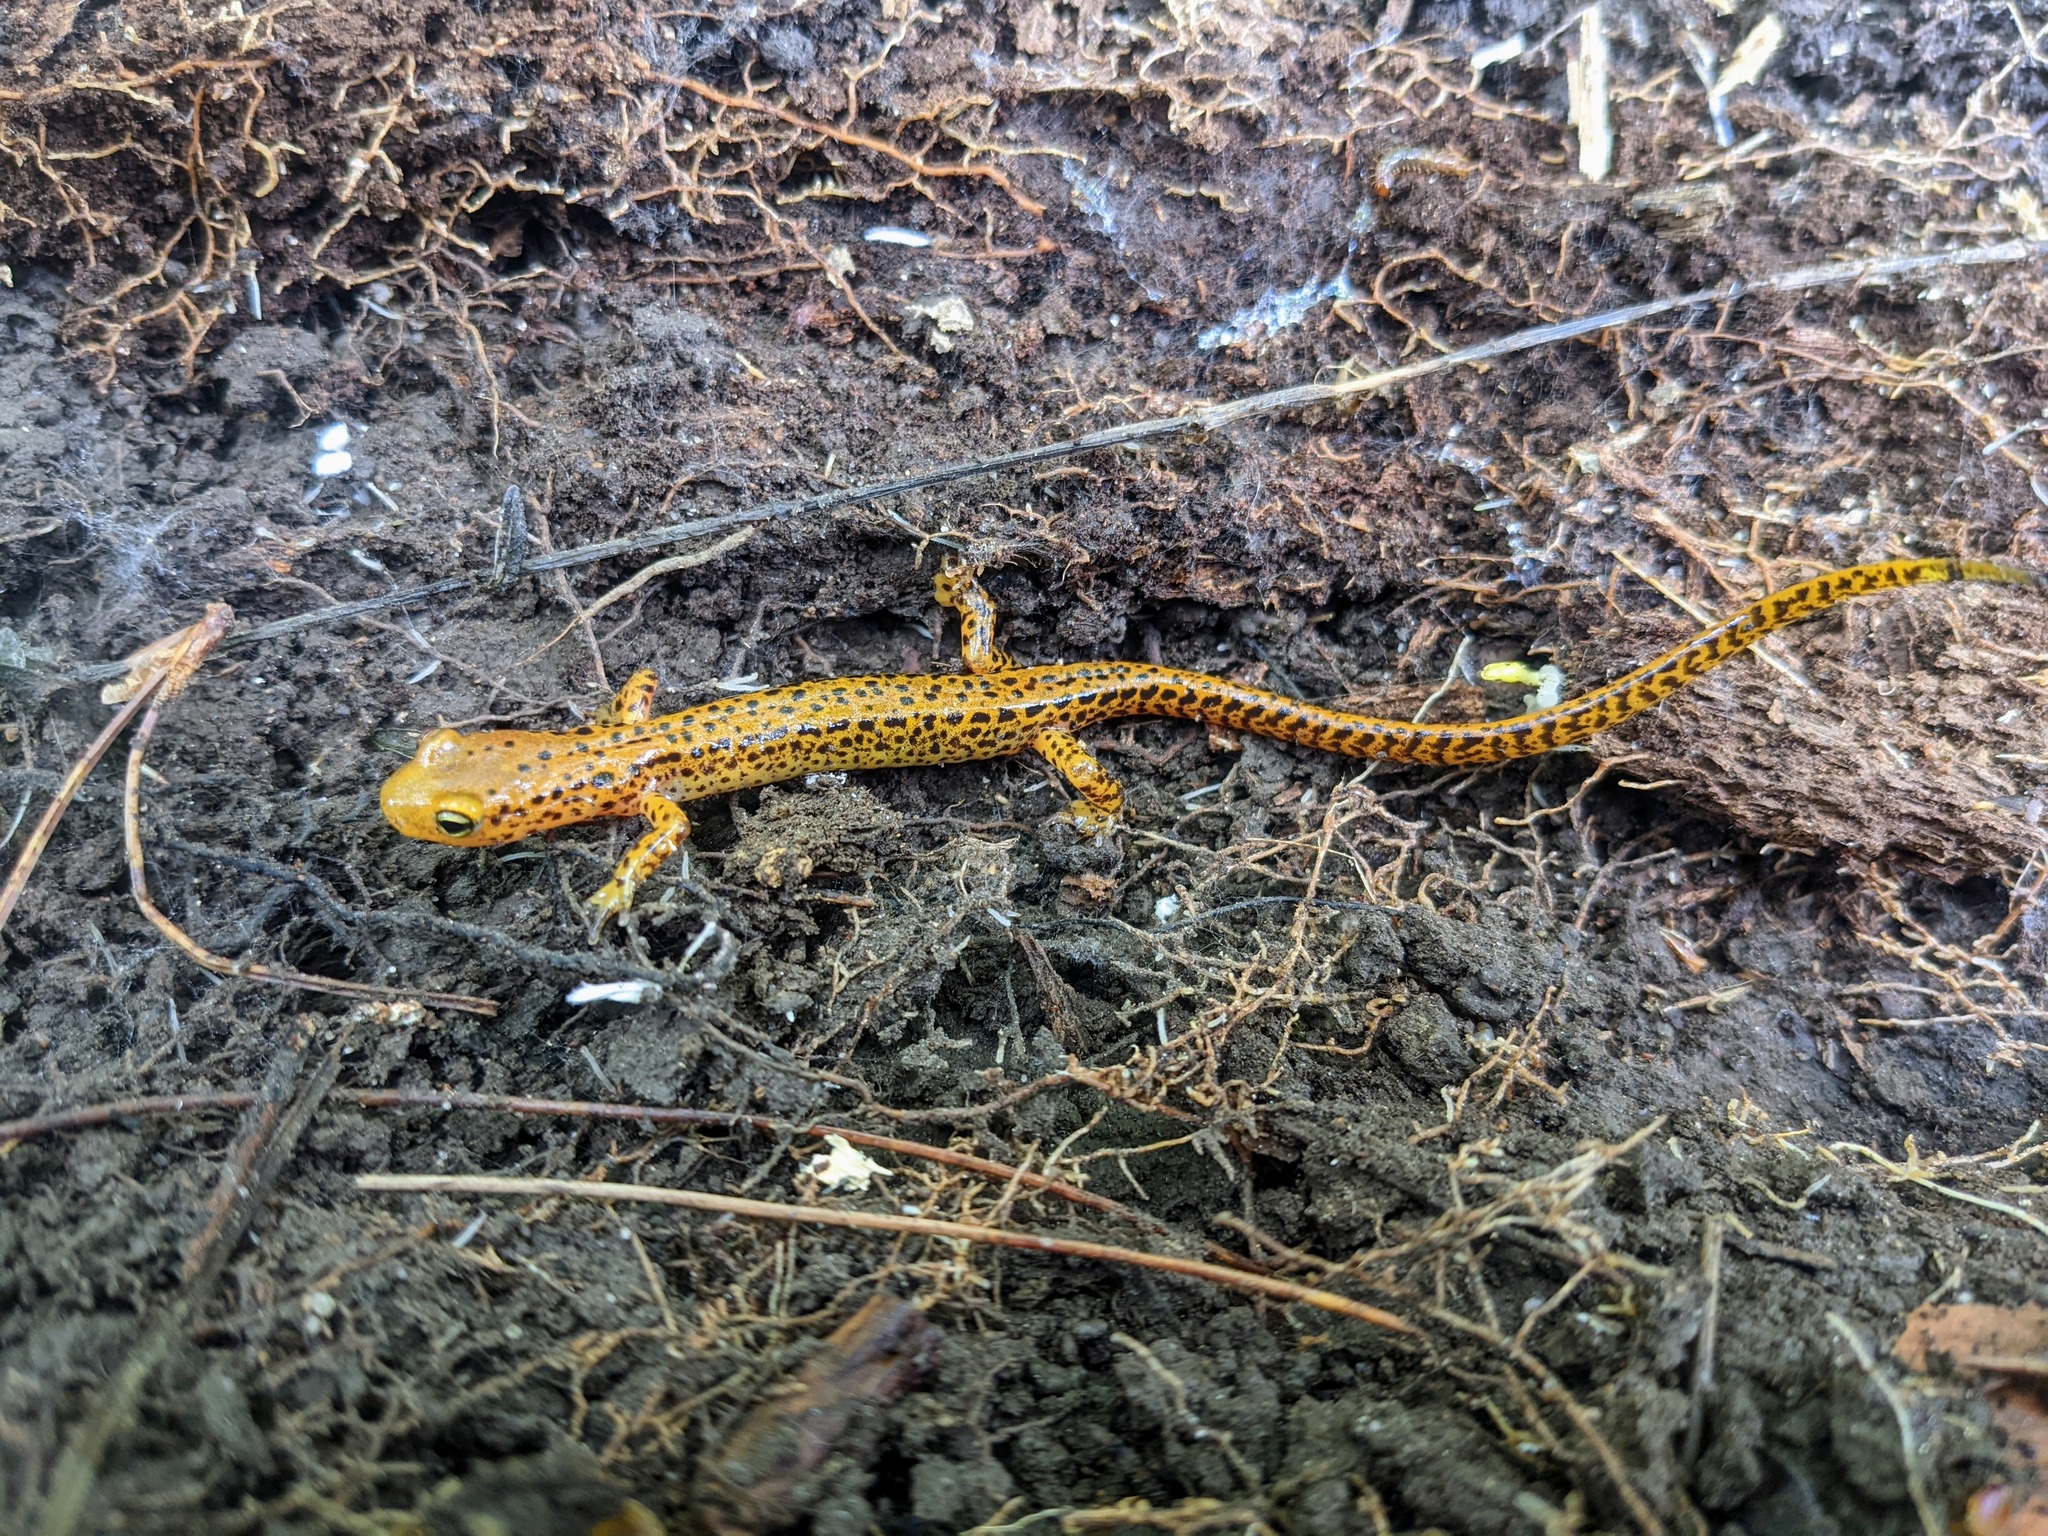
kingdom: Animalia
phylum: Chordata
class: Amphibia
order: Caudata
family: Plethodontidae
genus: Eurycea
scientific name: Eurycea longicauda
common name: Long-tailed salamander
